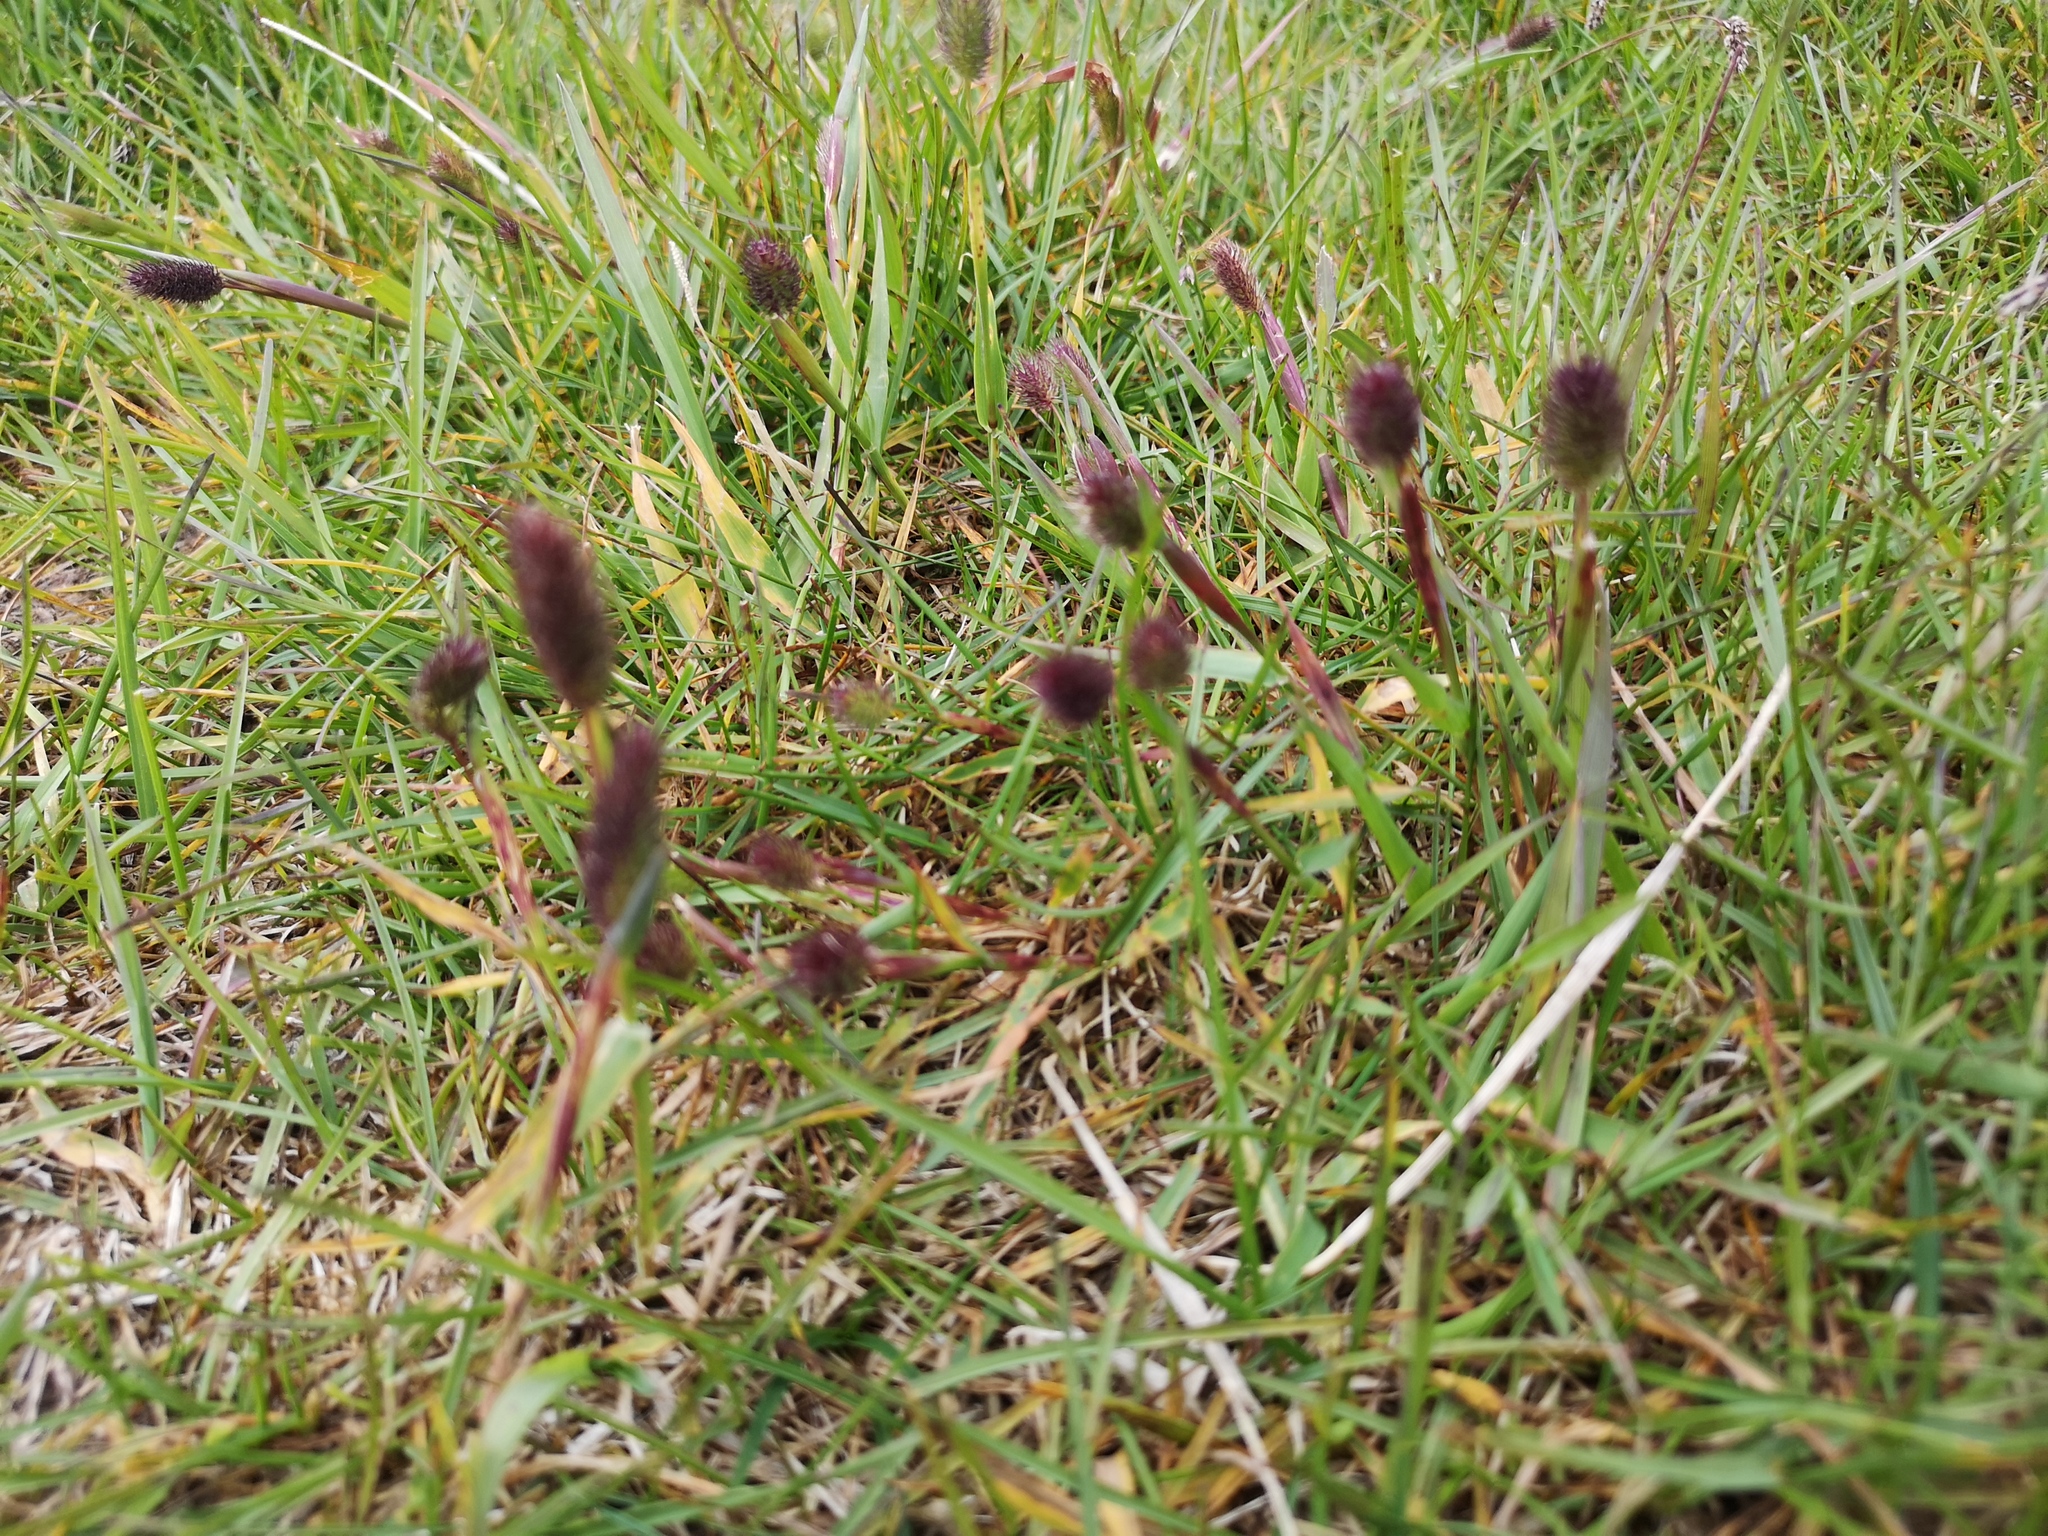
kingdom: Plantae
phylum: Tracheophyta
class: Liliopsida
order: Poales
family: Poaceae
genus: Phleum
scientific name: Phleum alpinum
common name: Alpine cat's-tail
